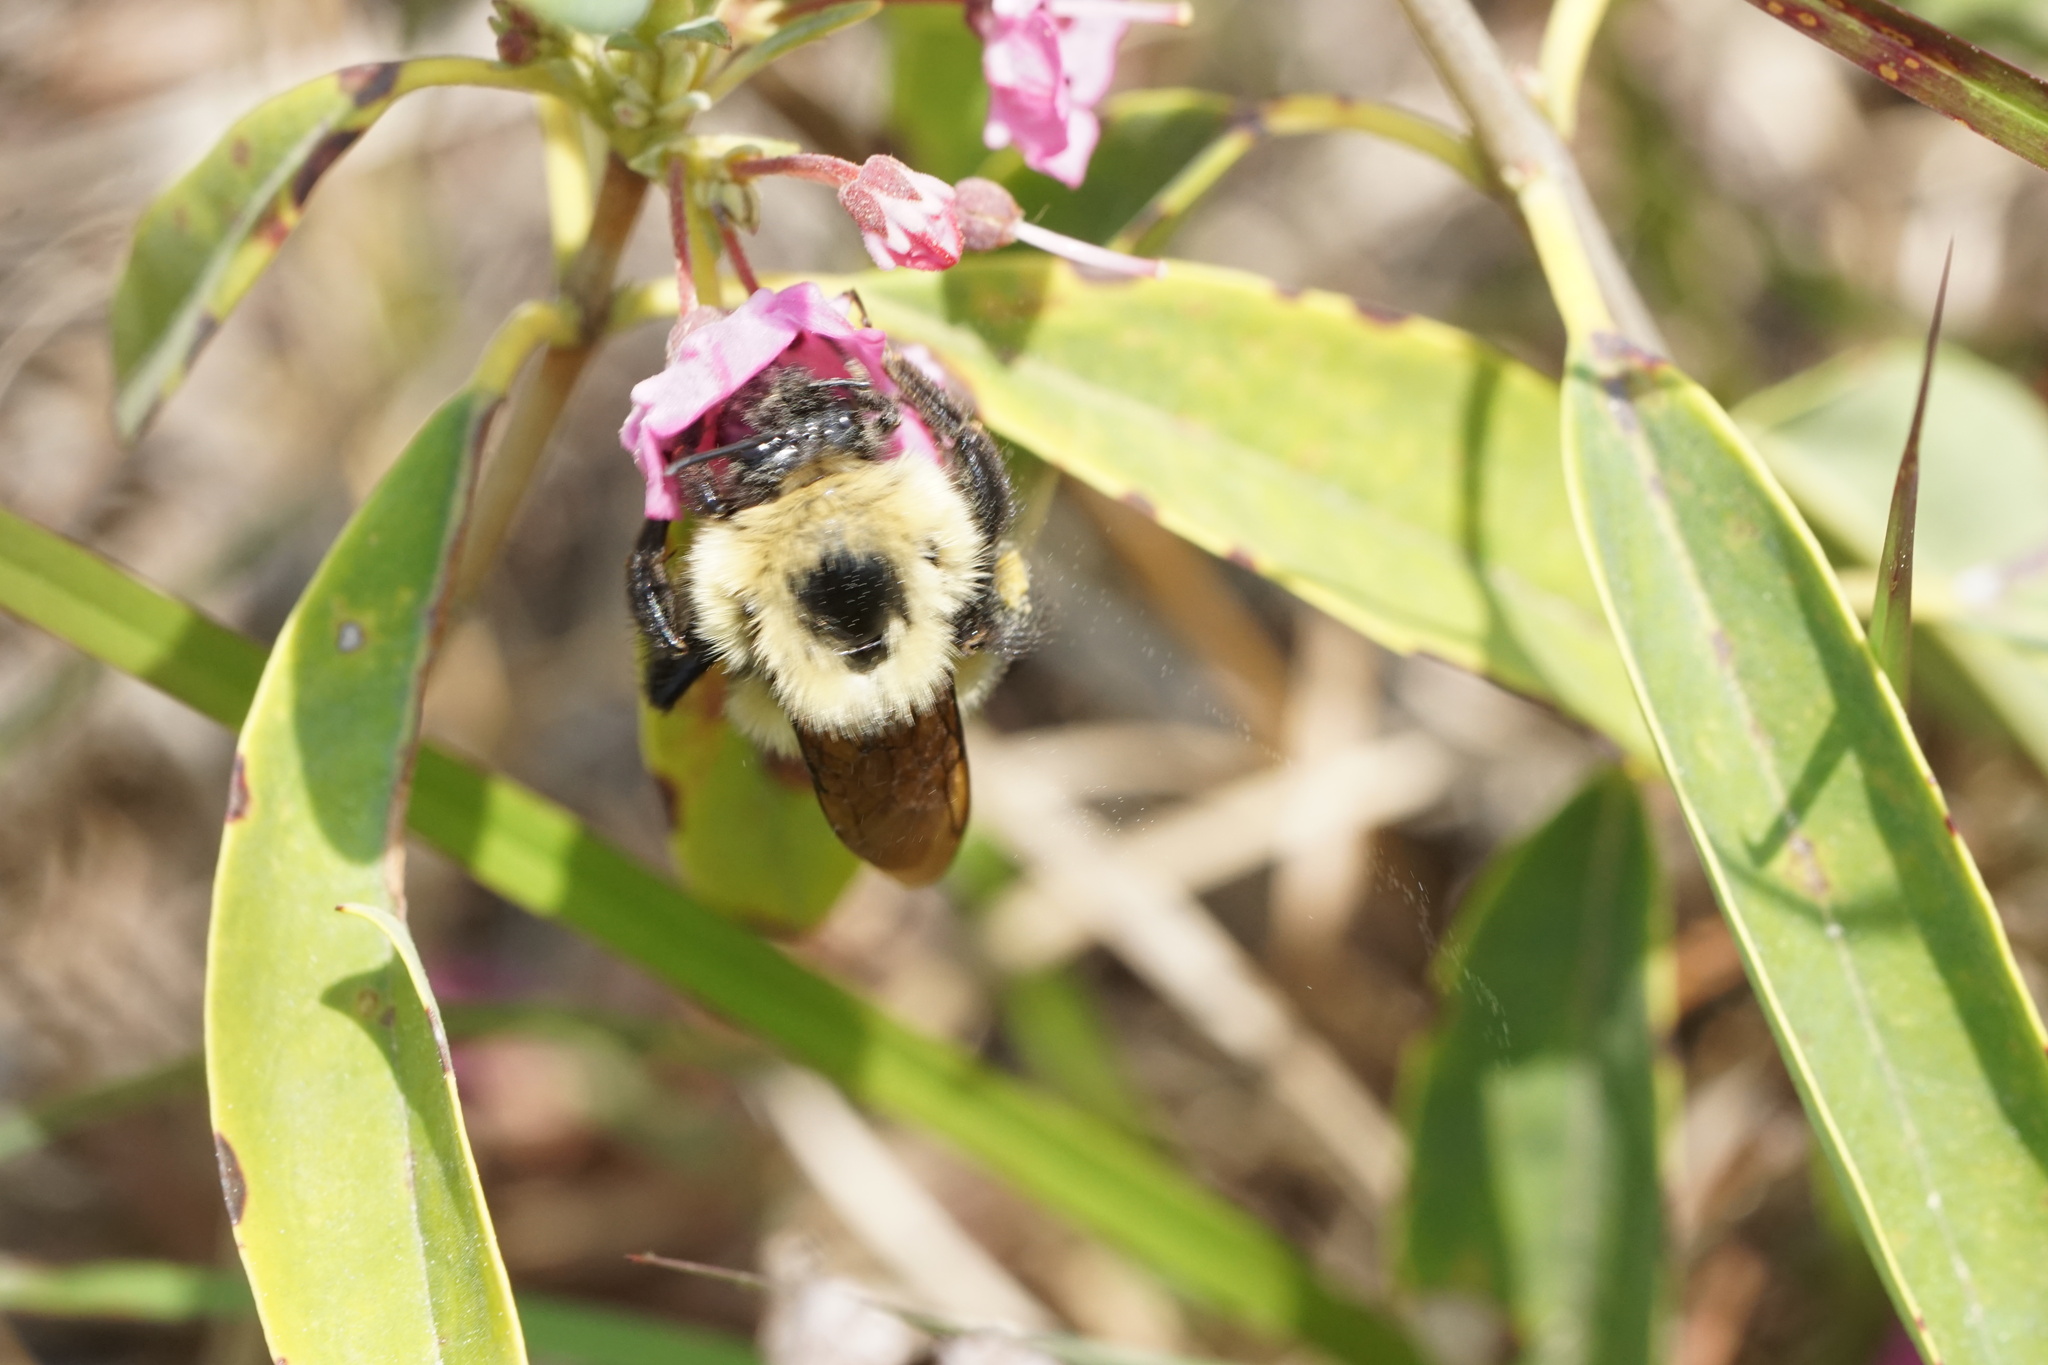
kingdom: Animalia
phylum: Arthropoda
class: Insecta
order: Hymenoptera
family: Apidae
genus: Bombus
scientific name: Bombus bimaculatus
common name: Two-spotted bumble bee
